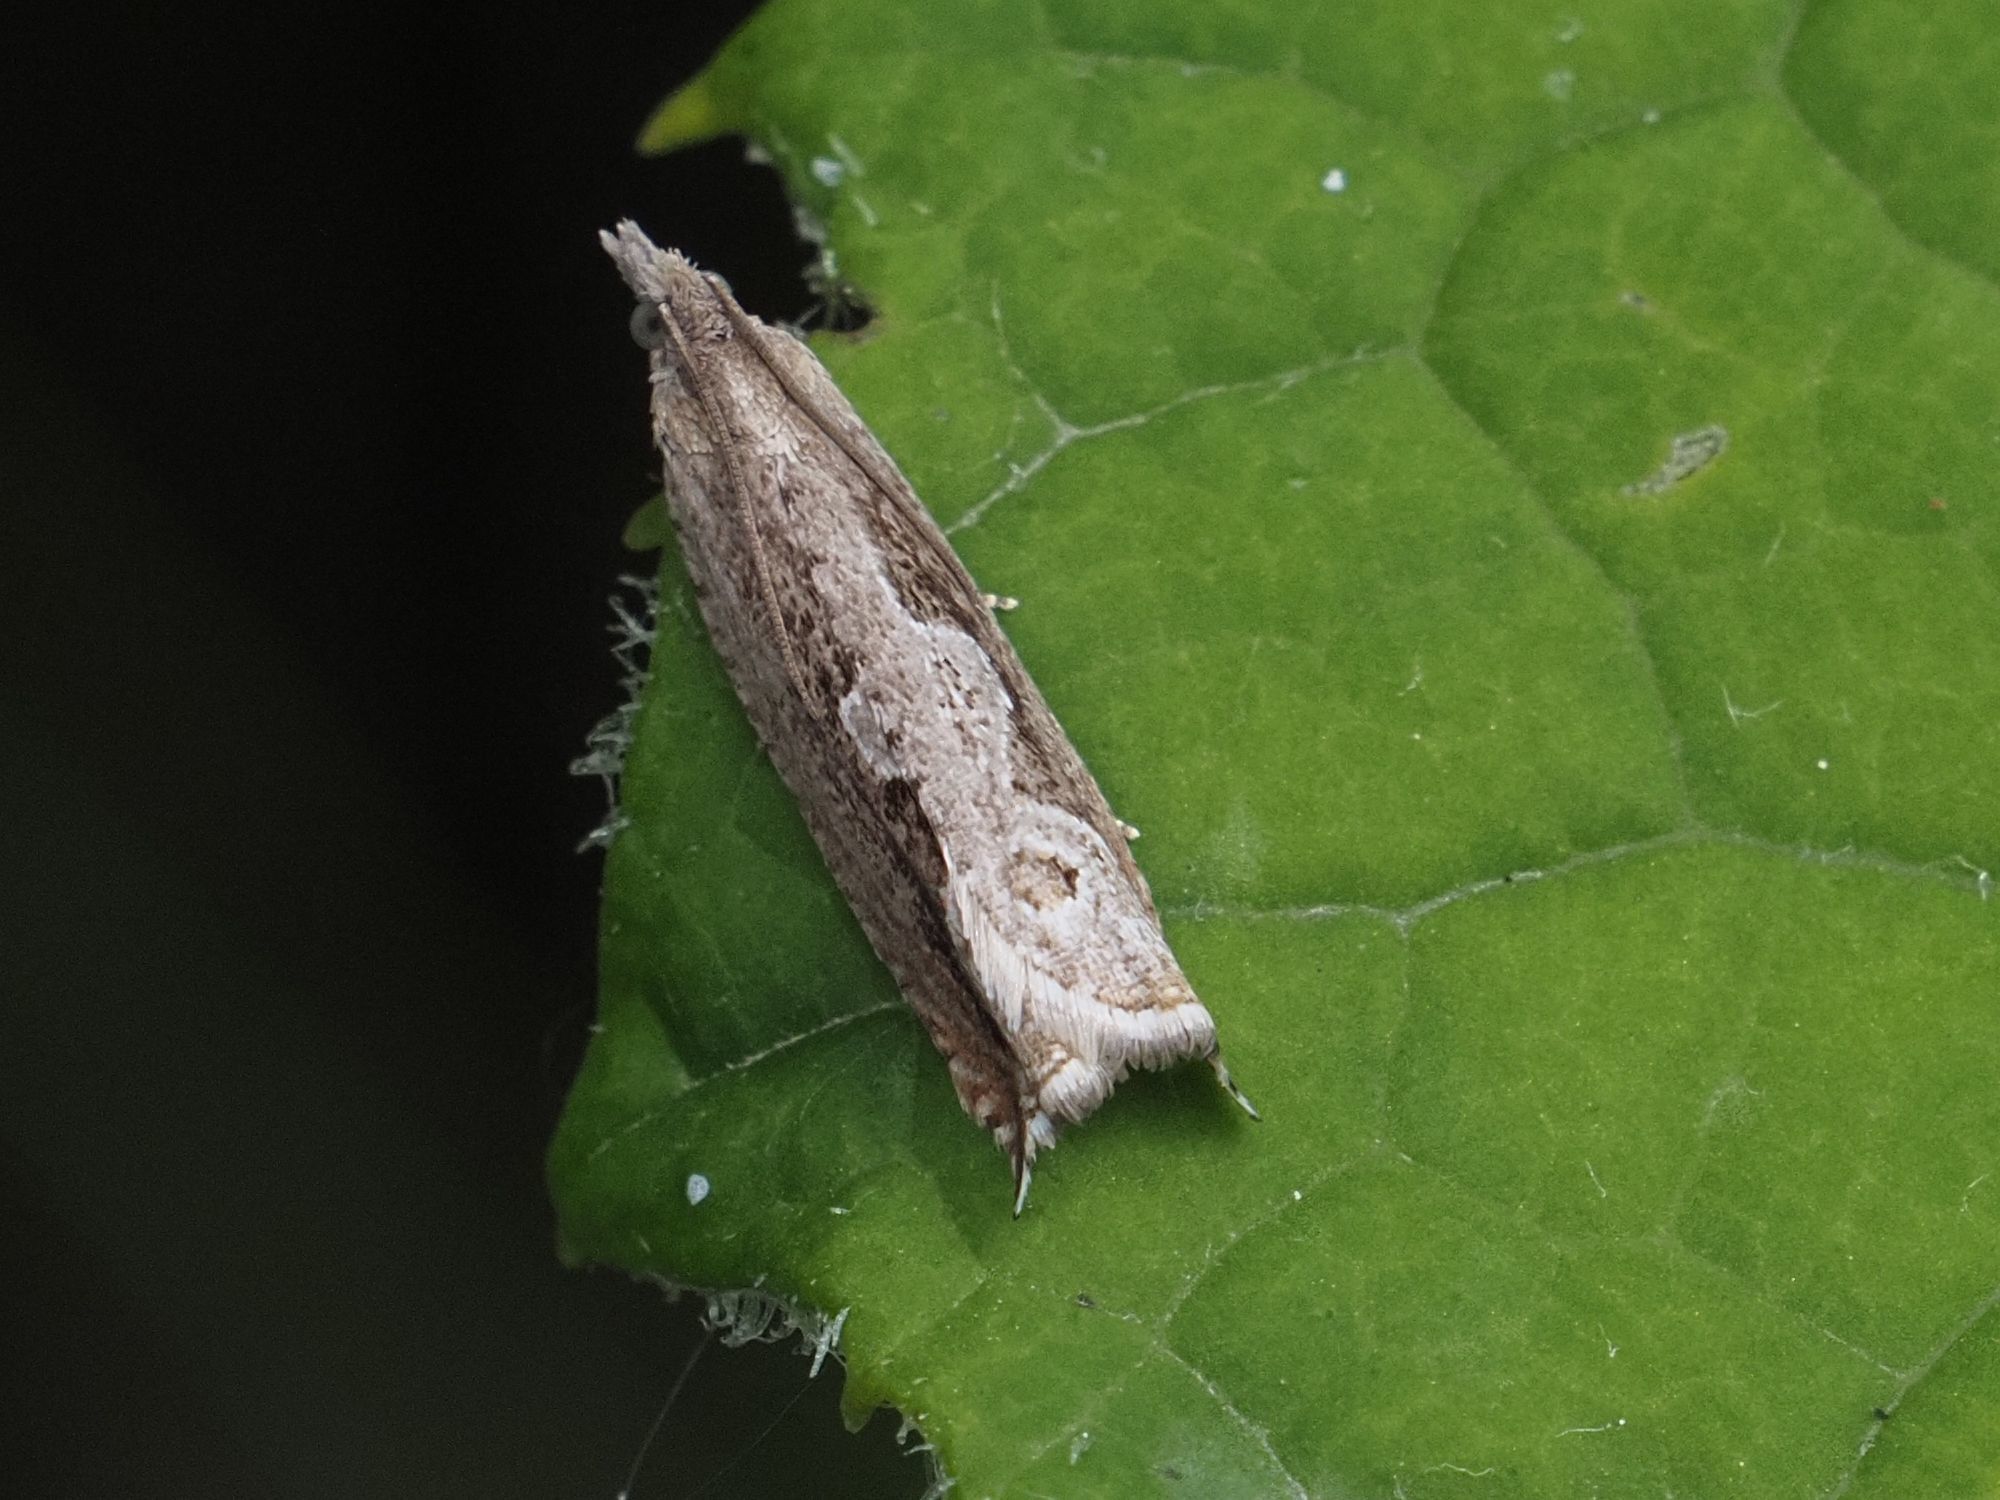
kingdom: Animalia
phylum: Arthropoda
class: Insecta
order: Lepidoptera
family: Tortricidae
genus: Ancylis
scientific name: Ancylis geminana
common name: Festooned roller
